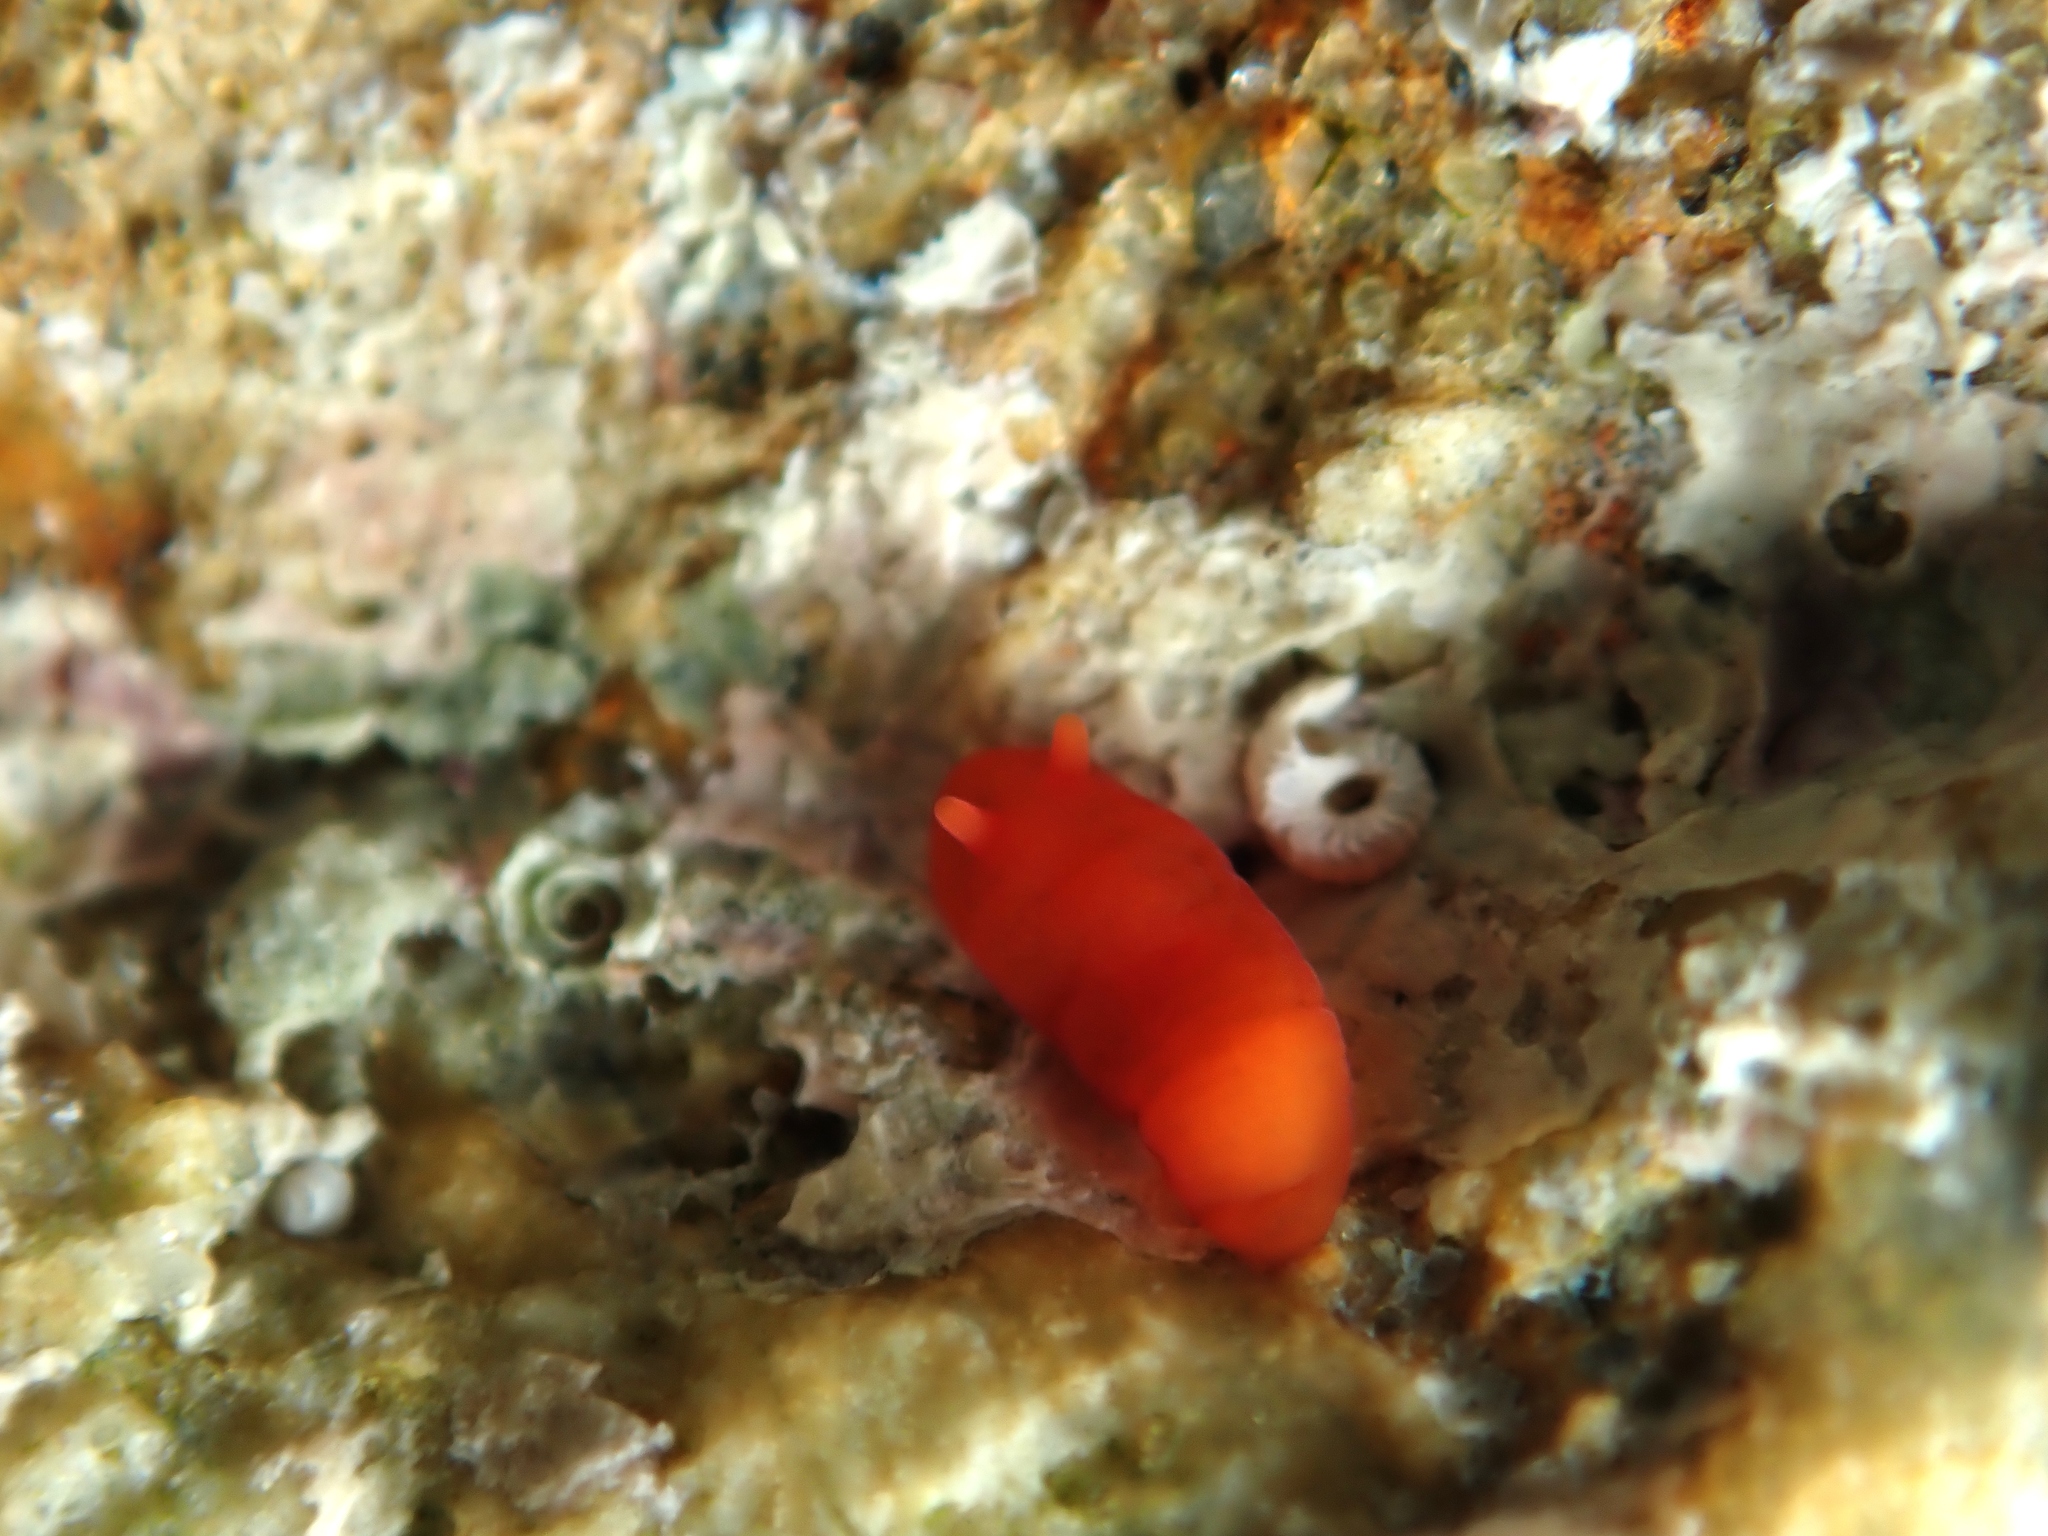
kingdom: Animalia
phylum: Mollusca
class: Gastropoda
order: Nudibranchia
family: Okadaiidae
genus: Vayssierea
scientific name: Vayssierea cinnabarea
